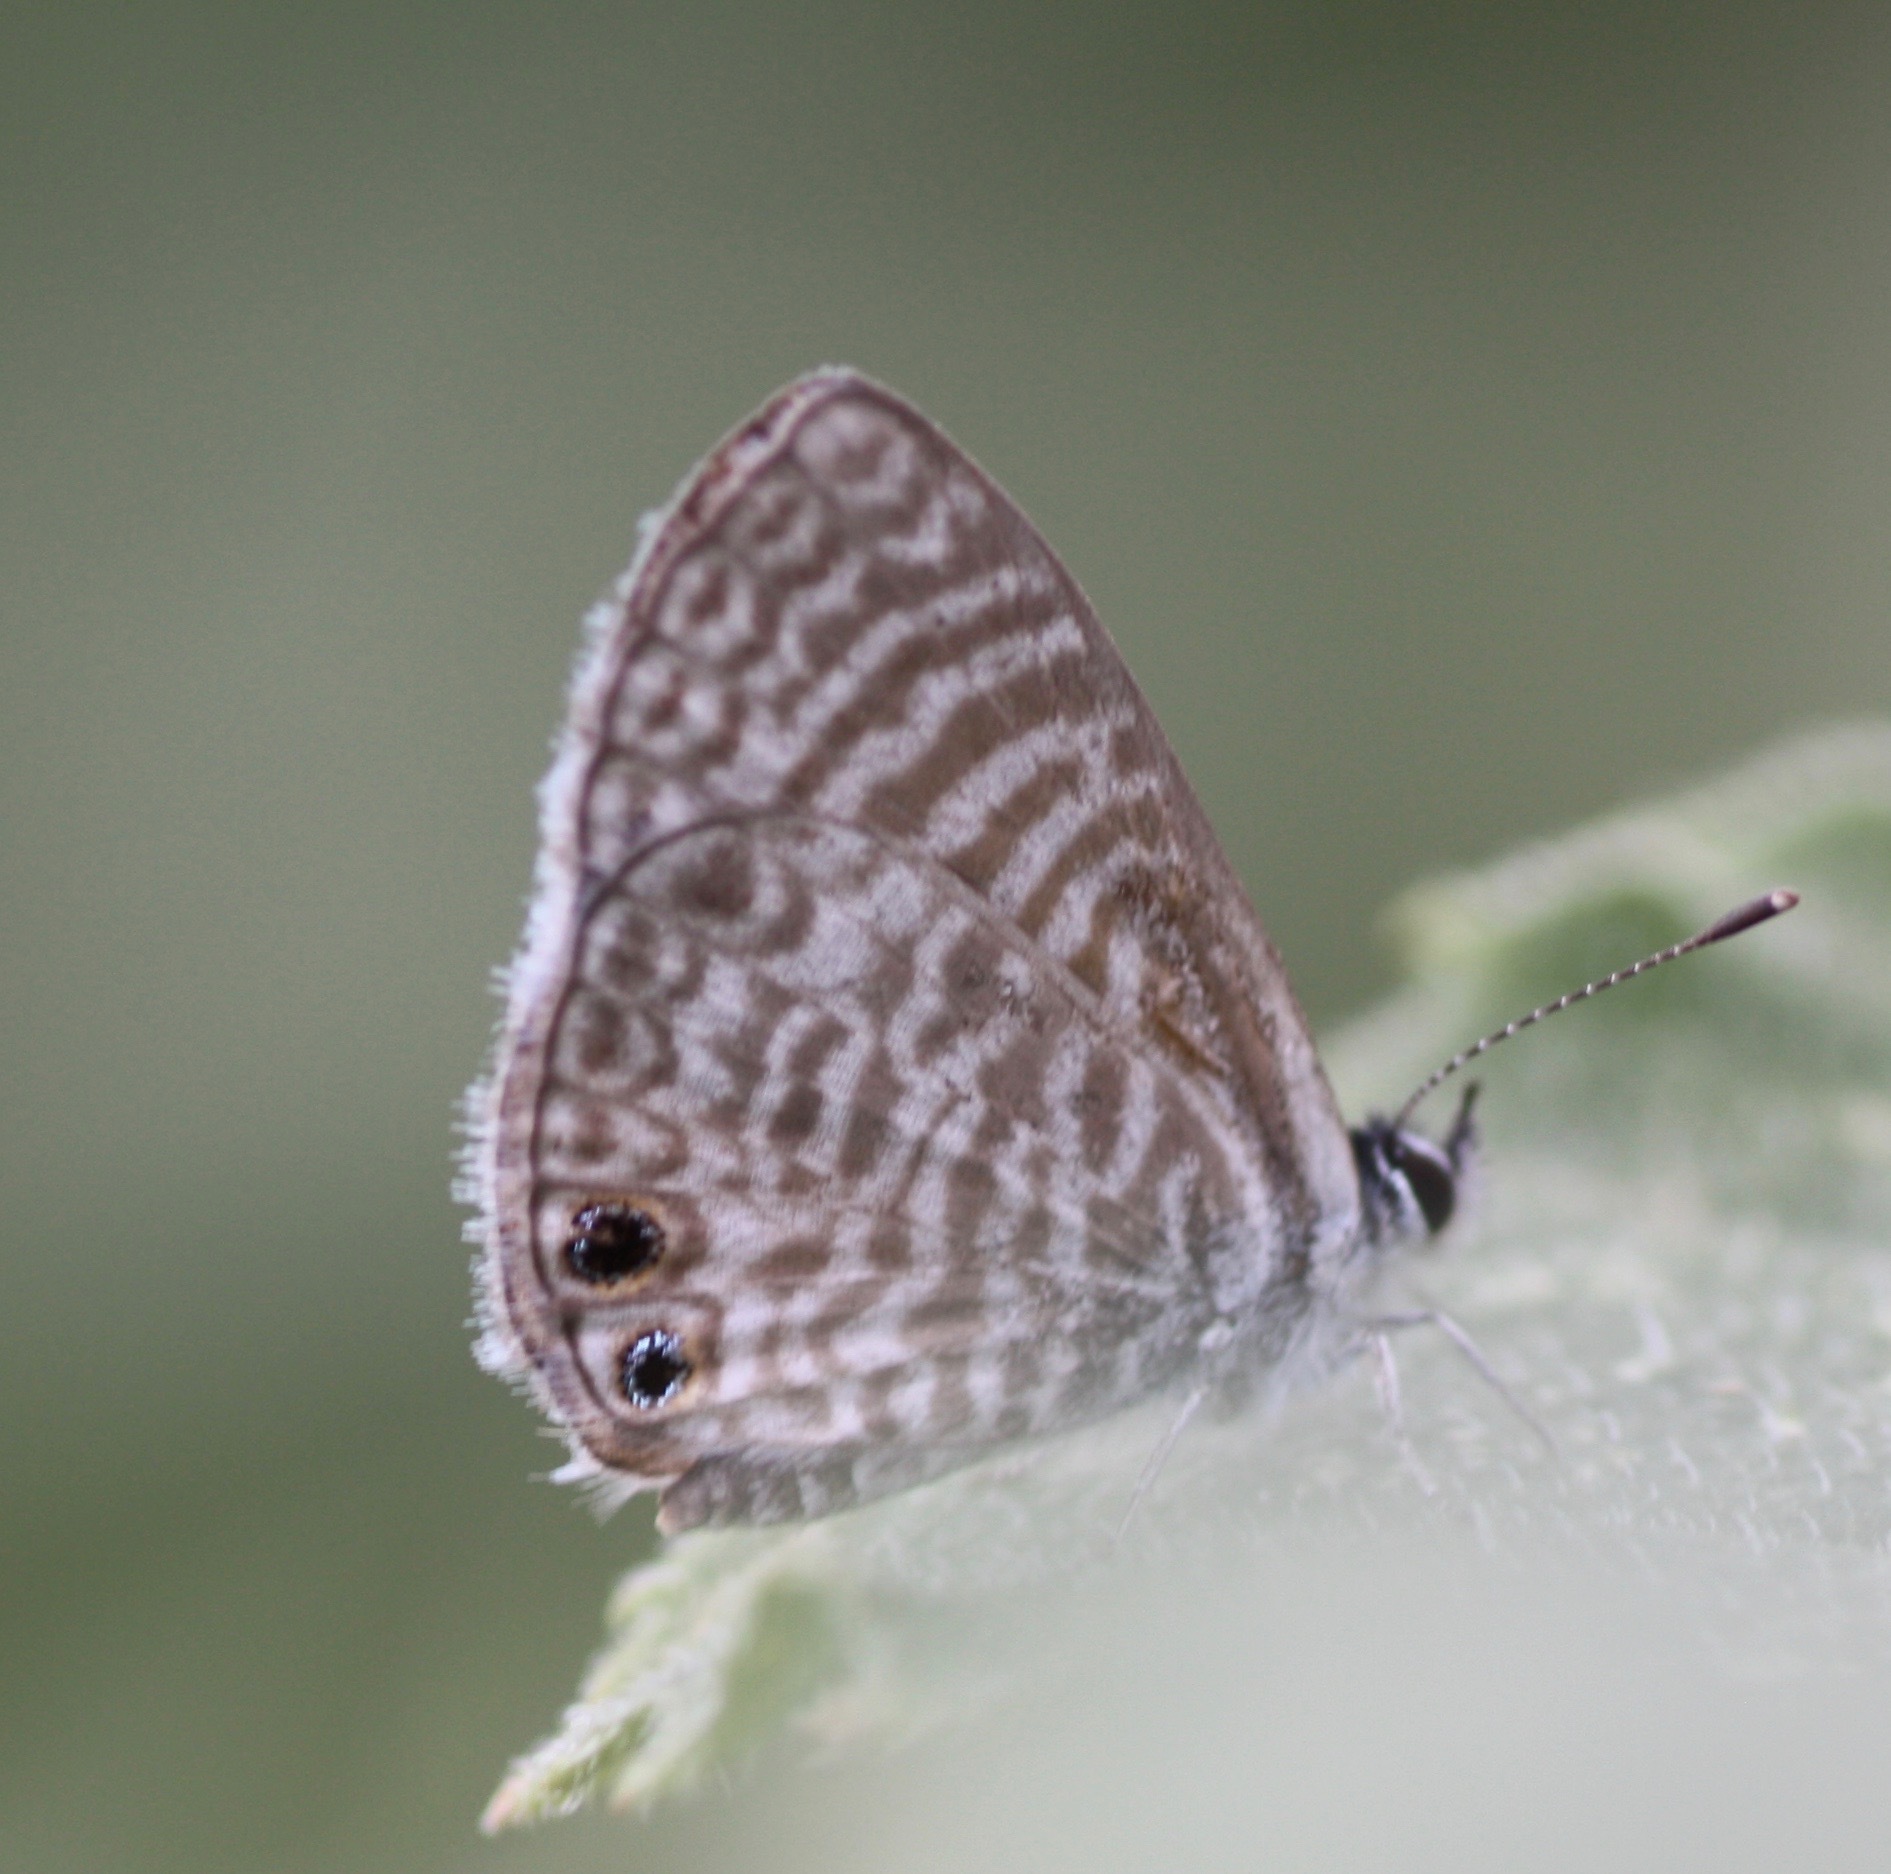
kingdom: Animalia
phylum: Arthropoda
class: Insecta
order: Lepidoptera
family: Lycaenidae
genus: Leptotes
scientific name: Leptotes marina
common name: Marine blue
